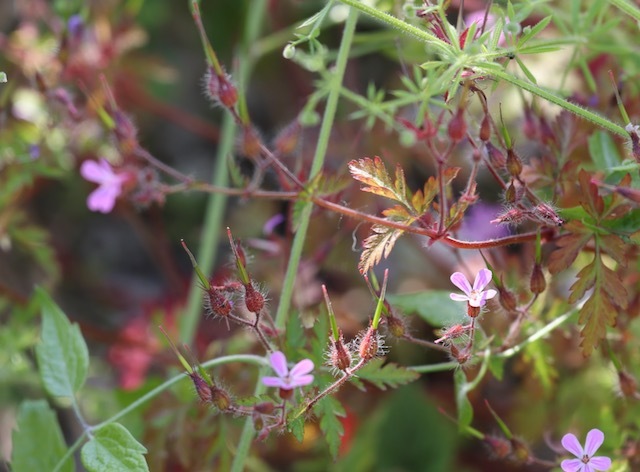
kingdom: Plantae
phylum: Tracheophyta
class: Magnoliopsida
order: Geraniales
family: Geraniaceae
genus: Geranium
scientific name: Geranium robertianum
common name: Herb-robert
